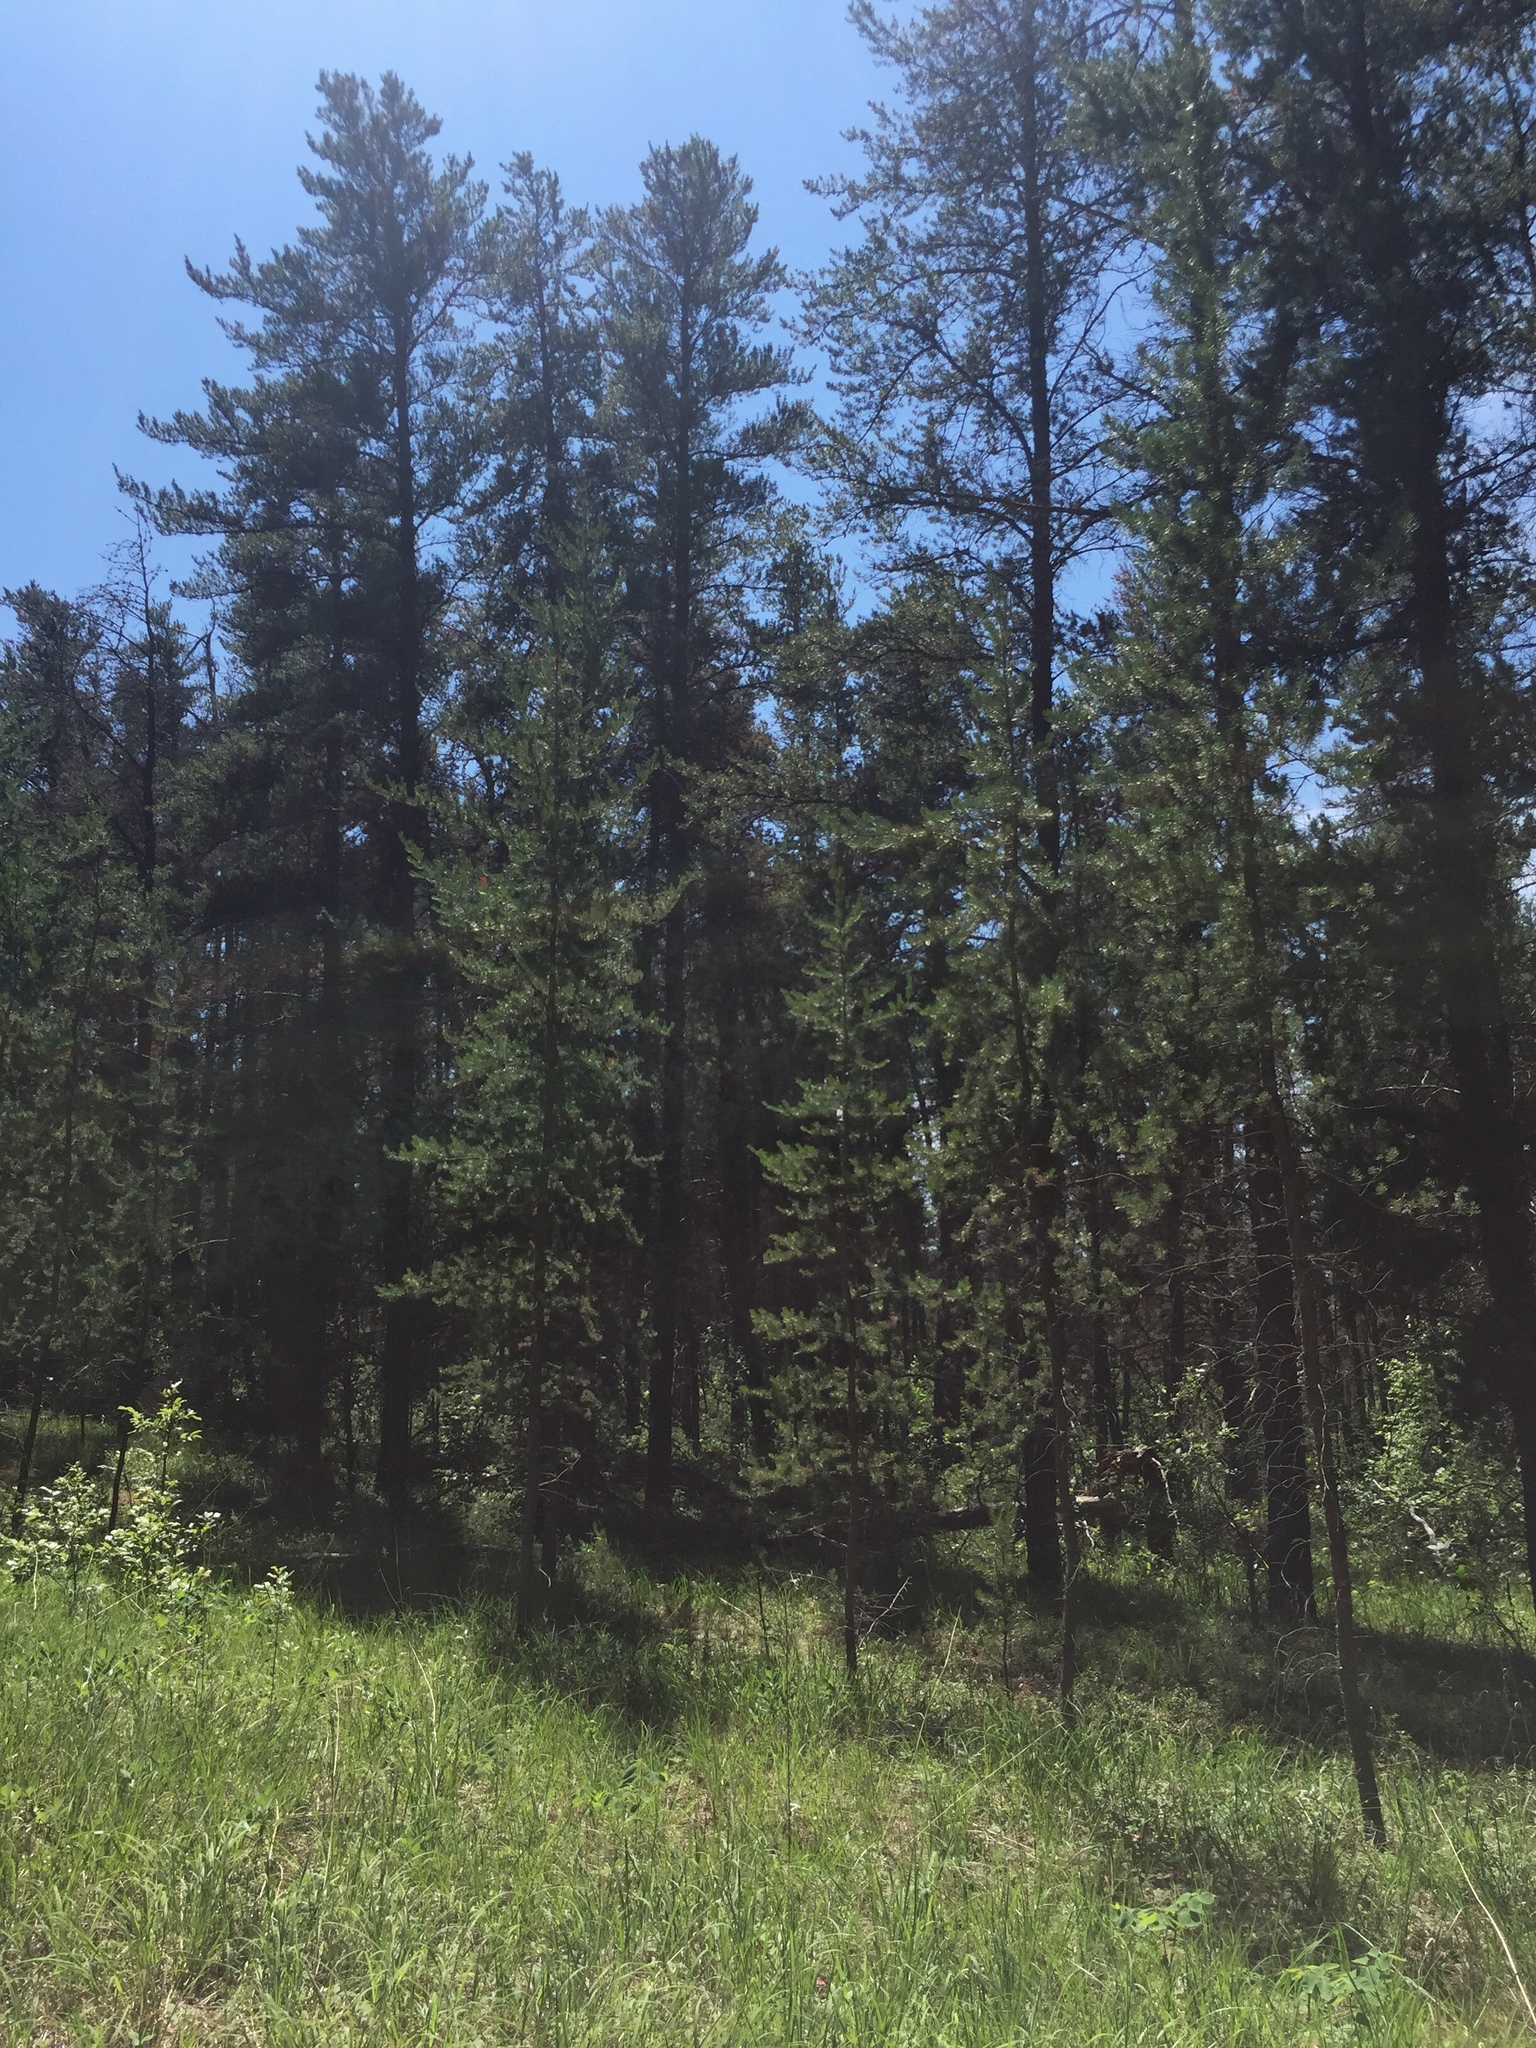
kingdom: Plantae
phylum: Tracheophyta
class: Pinopsida
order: Pinales
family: Pinaceae
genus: Pinus
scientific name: Pinus banksiana
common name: Jack pine
